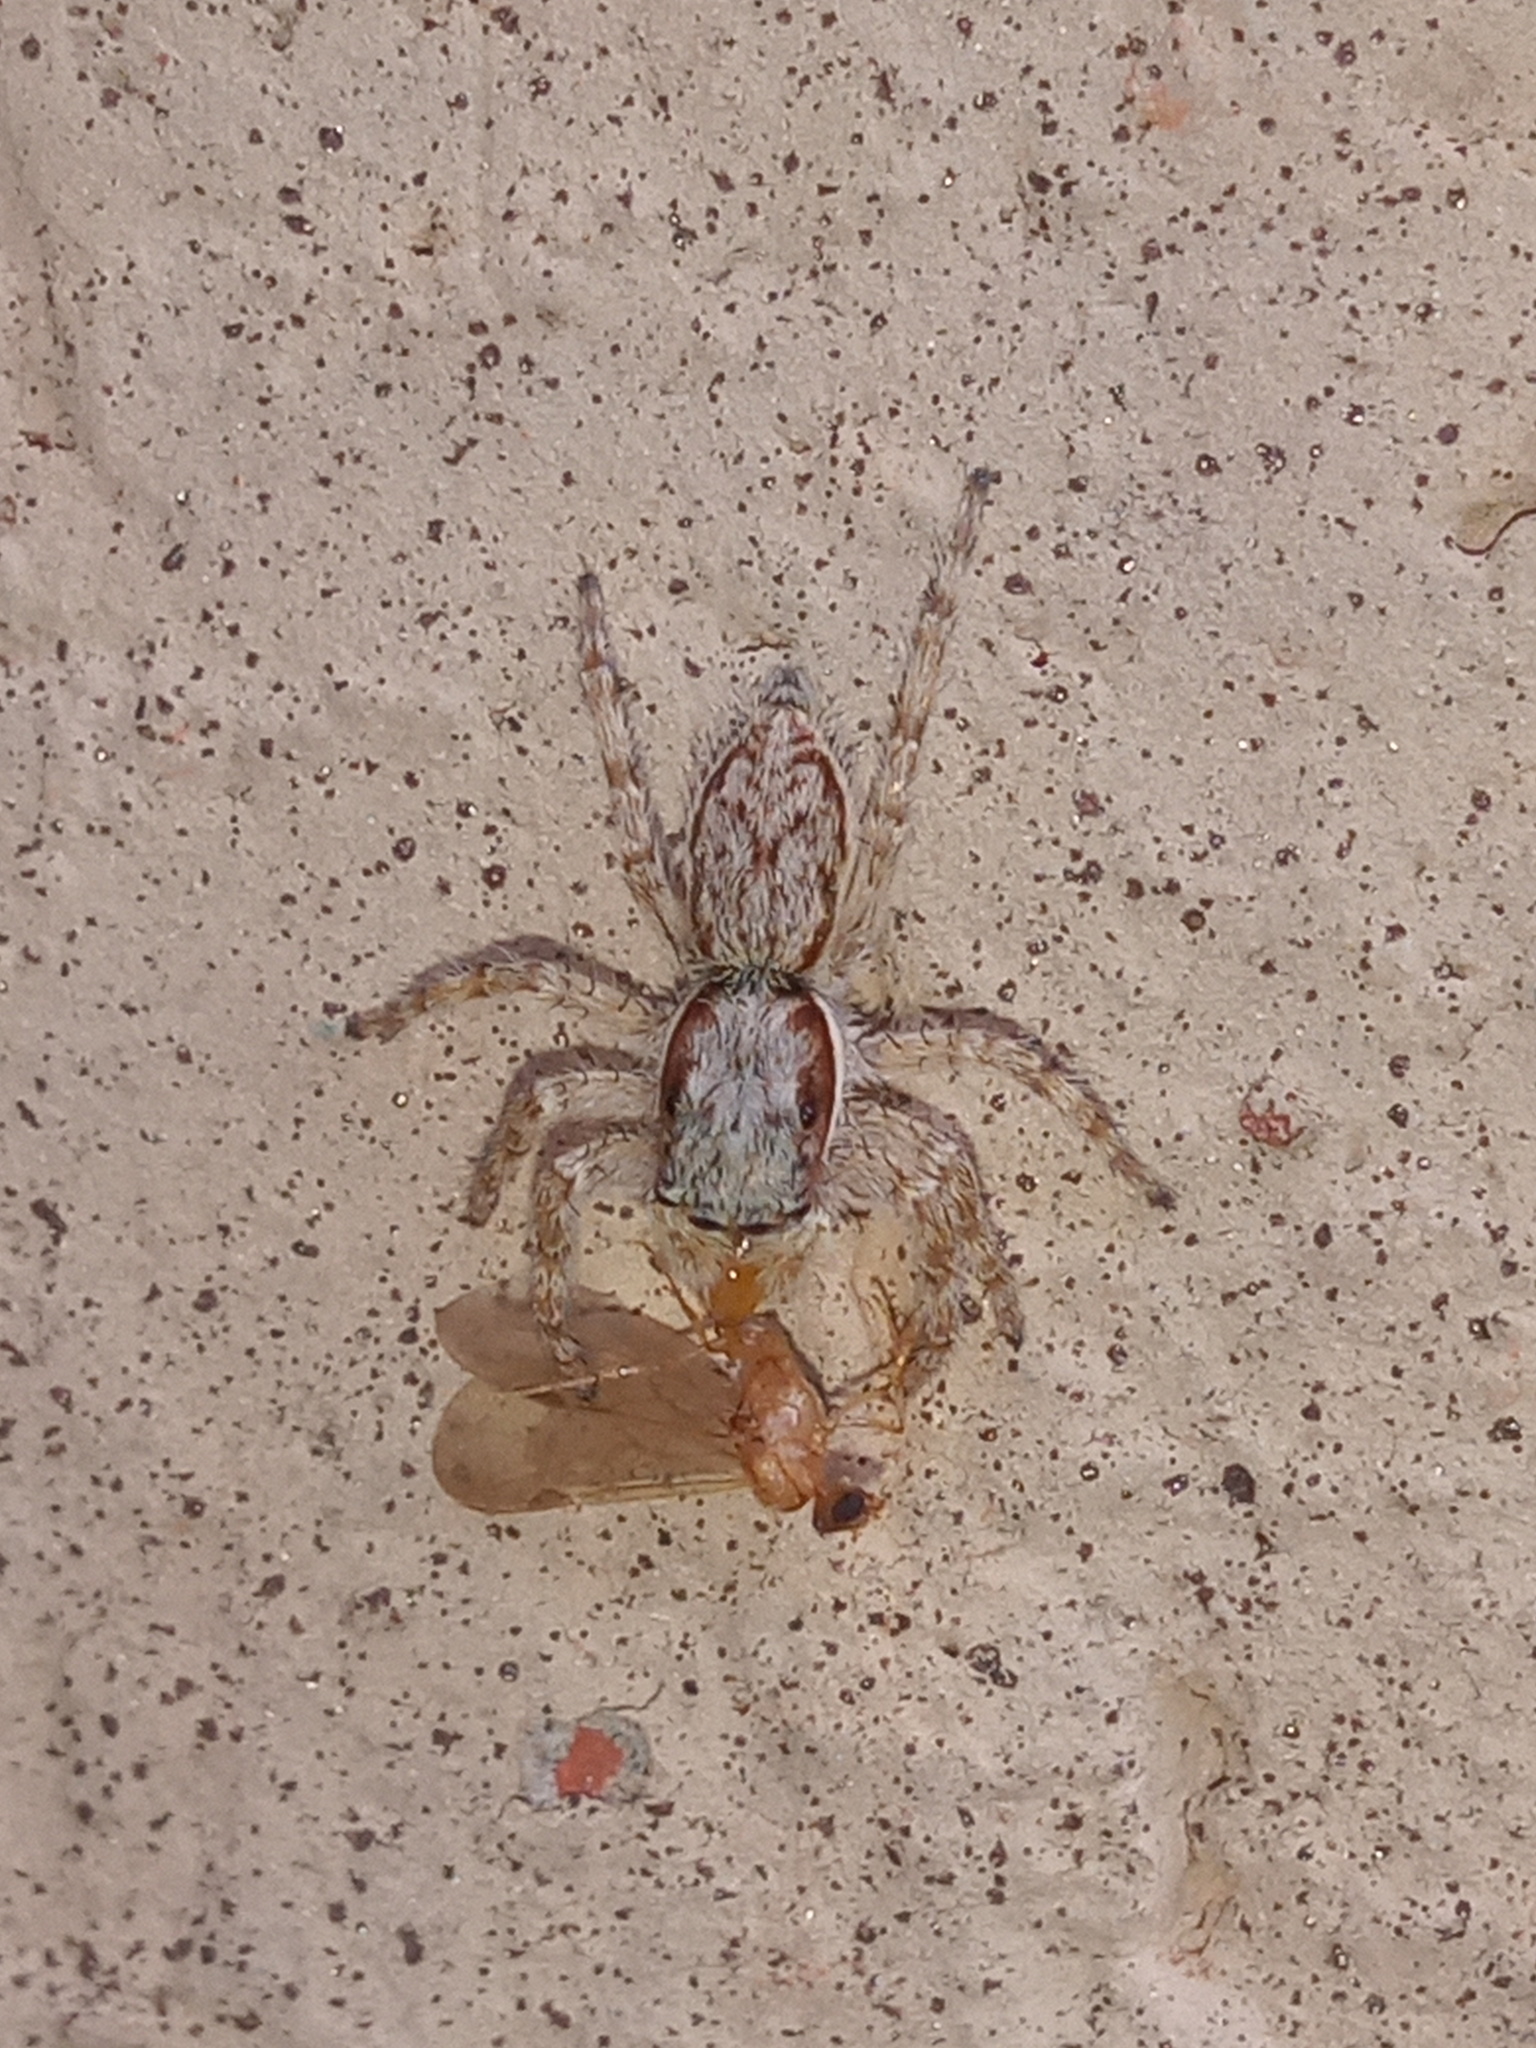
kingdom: Animalia
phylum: Arthropoda
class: Arachnida
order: Araneae
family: Salticidae
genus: Menemerus
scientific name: Menemerus bivittatus
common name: Gray wall jumper
